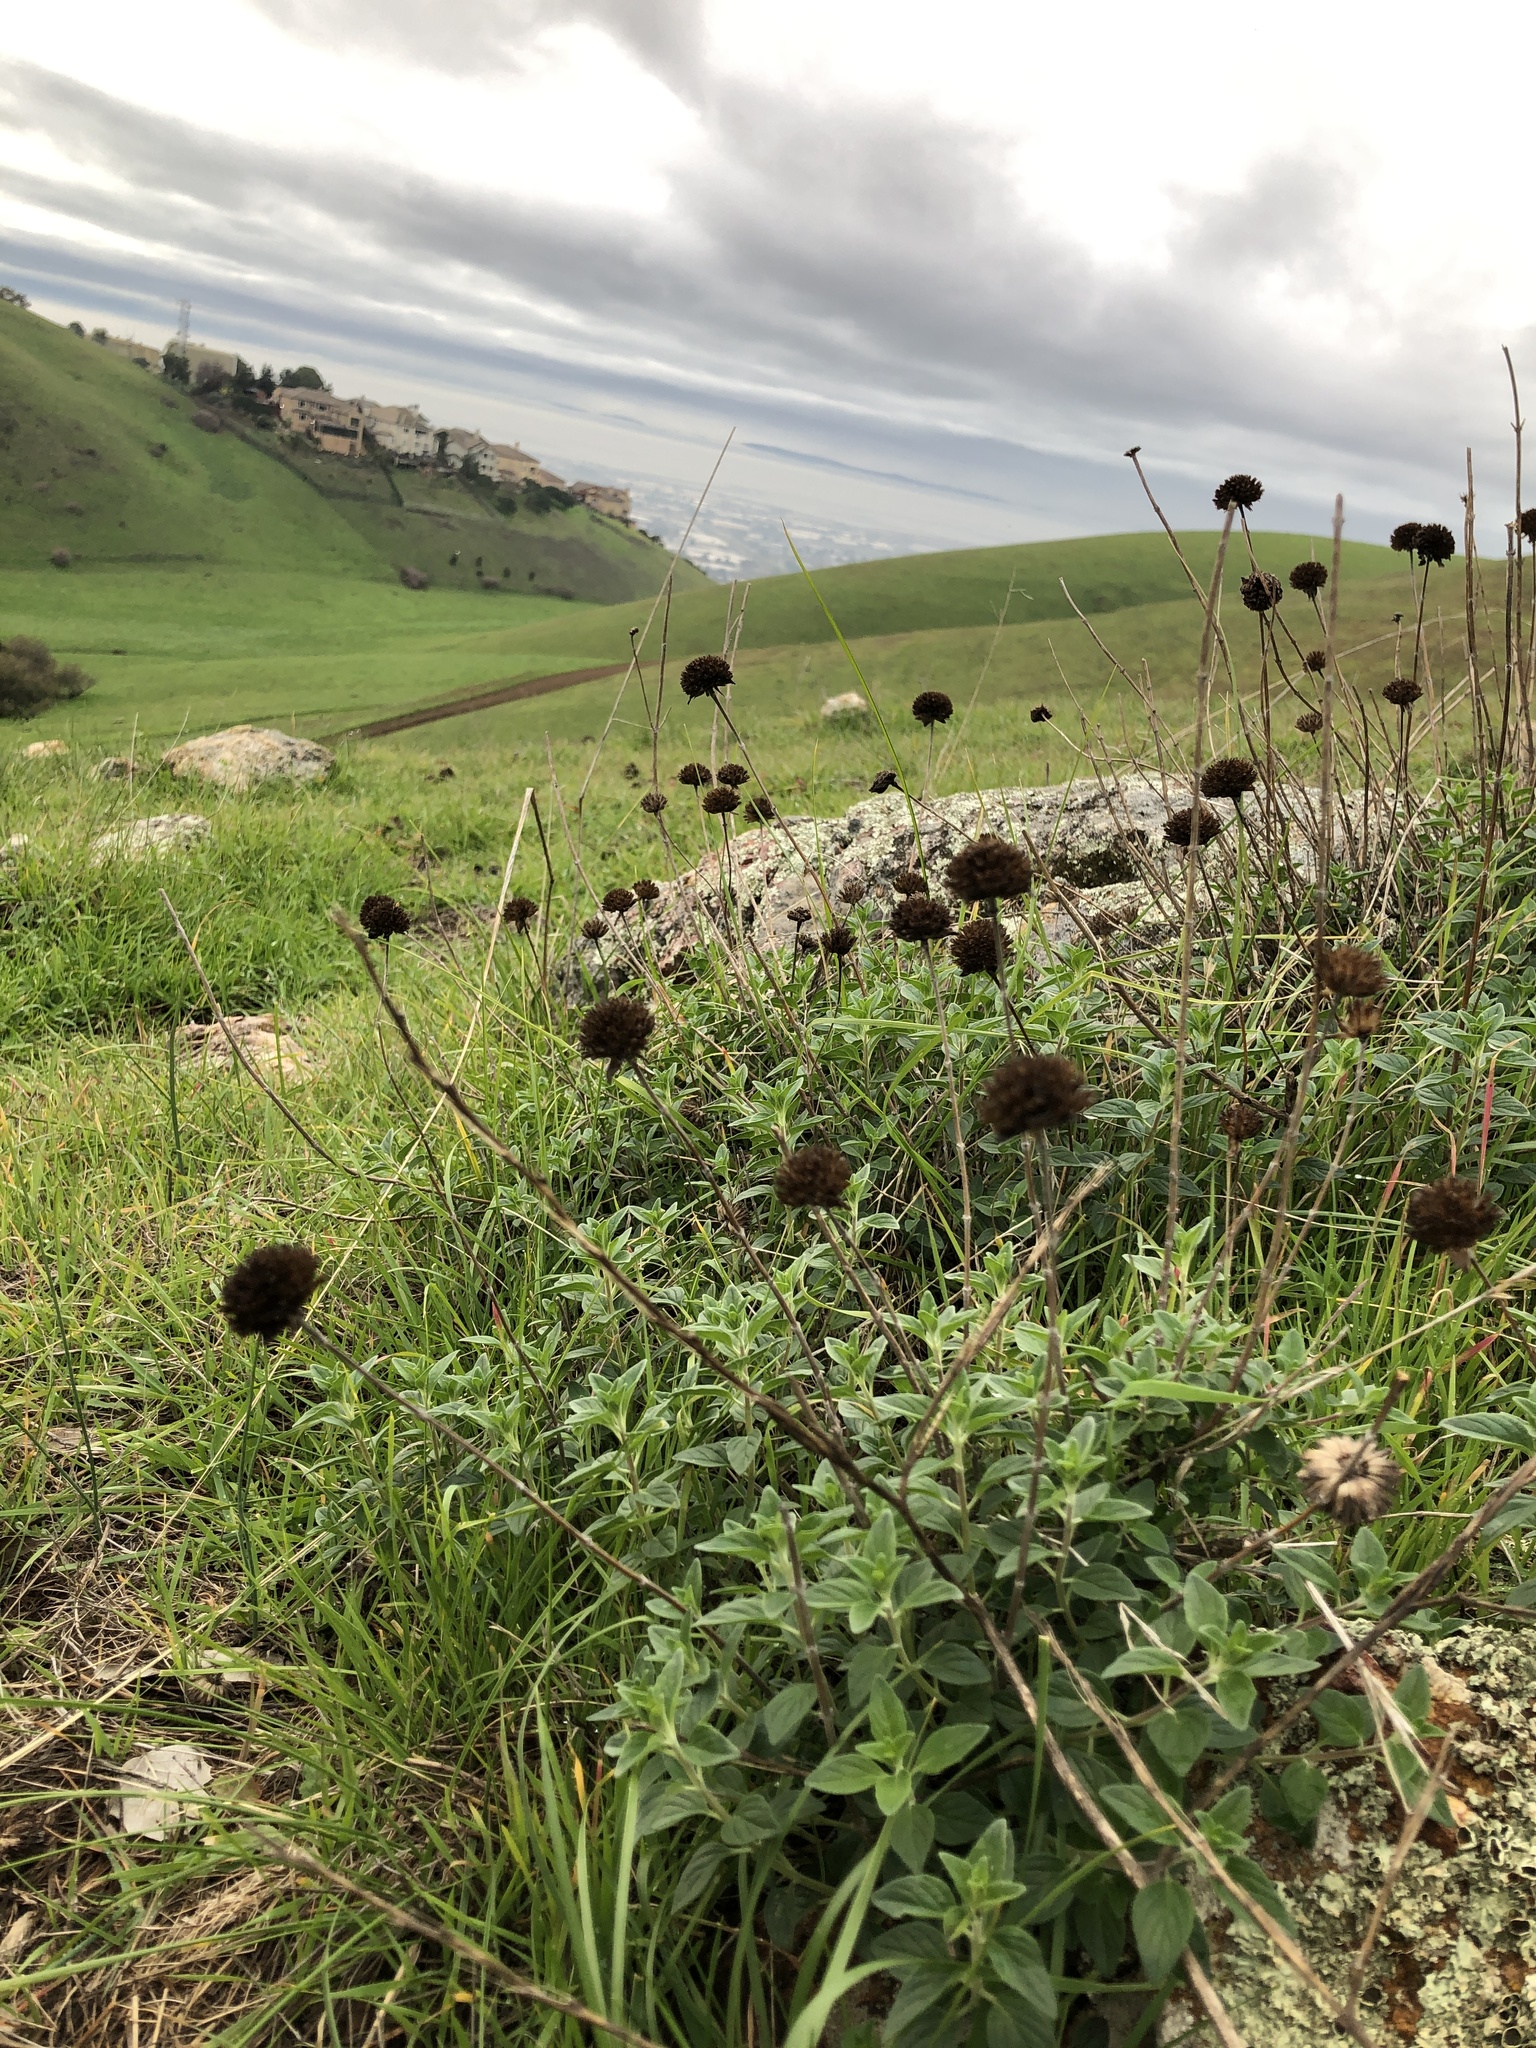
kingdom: Plantae
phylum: Tracheophyta
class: Magnoliopsida
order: Lamiales
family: Lamiaceae
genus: Monardella
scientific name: Monardella odoratissima
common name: Pacific monardella
